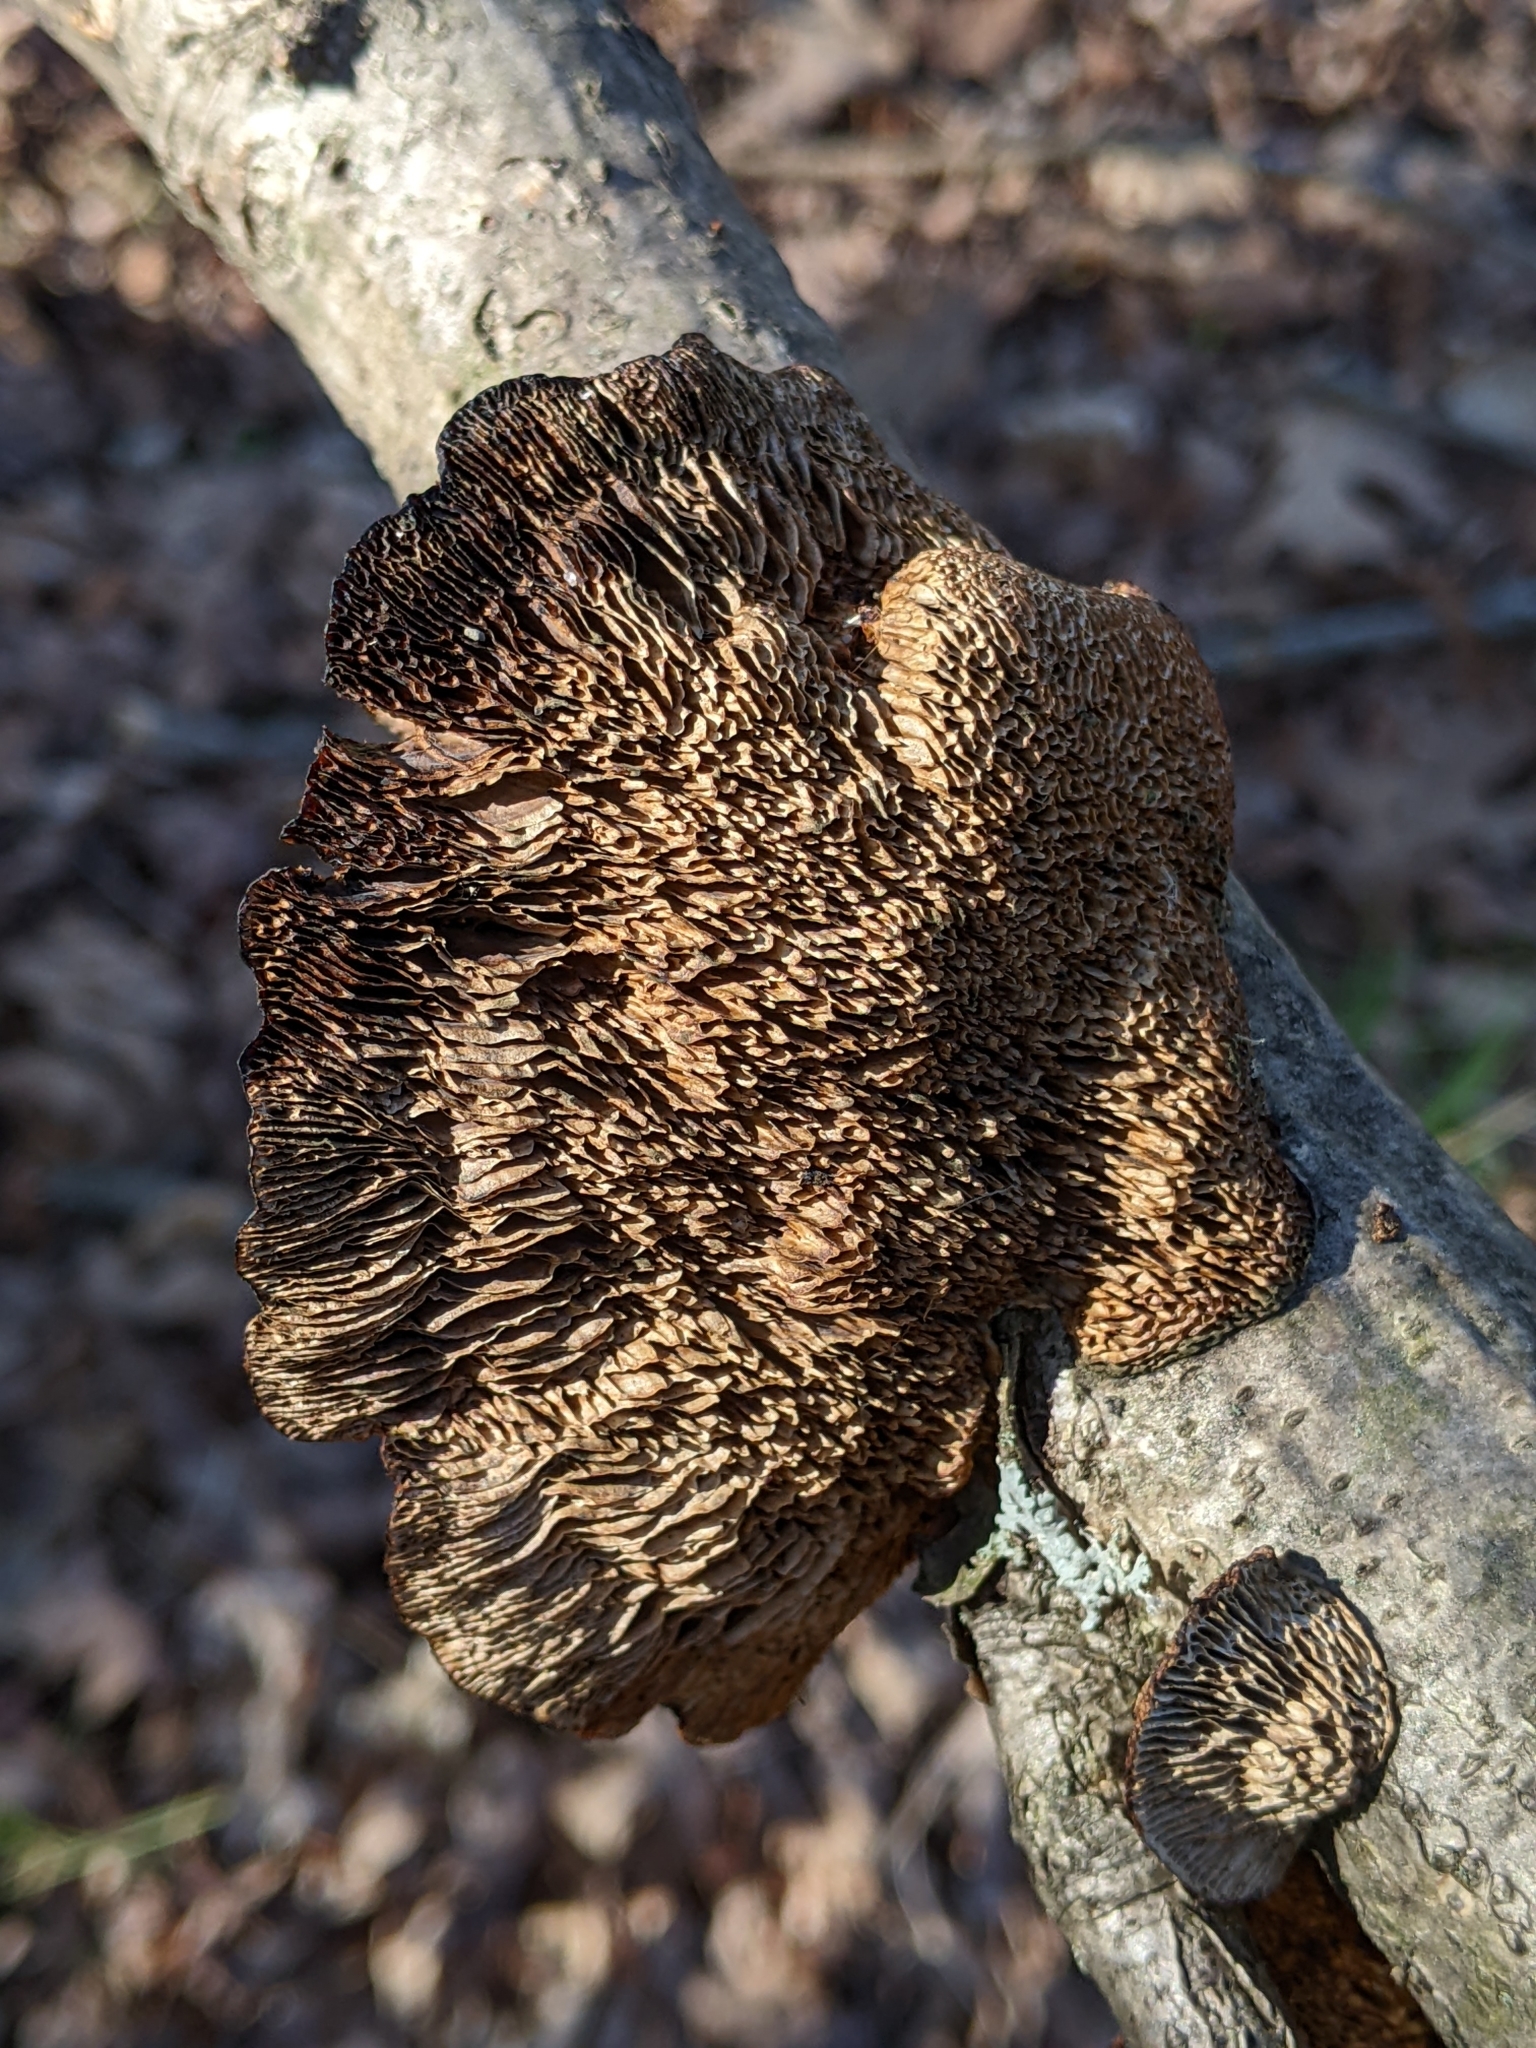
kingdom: Fungi
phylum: Basidiomycota
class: Agaricomycetes
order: Polyporales
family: Polyporaceae
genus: Daedaleopsis
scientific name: Daedaleopsis confragosa
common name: Blushing bracket
